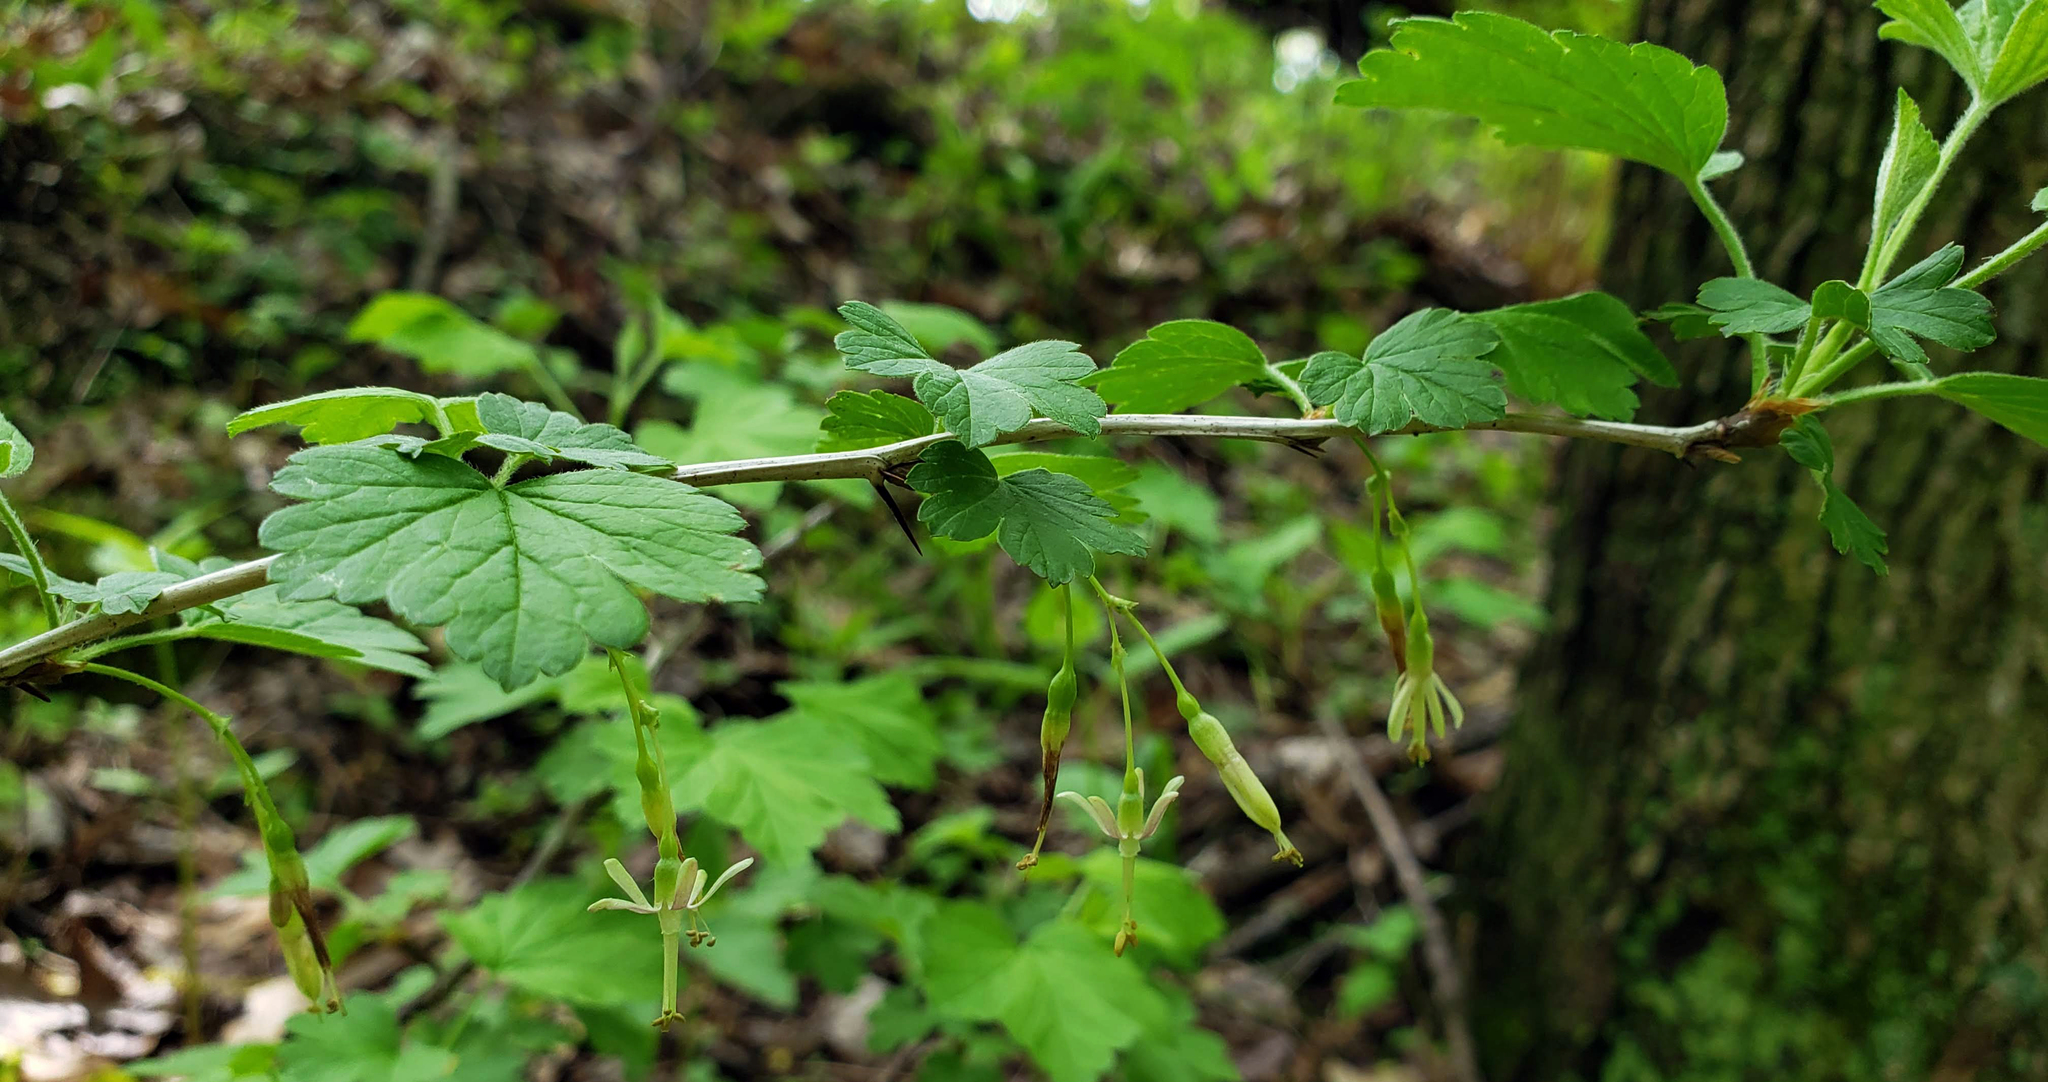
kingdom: Plantae
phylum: Tracheophyta
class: Magnoliopsida
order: Saxifragales
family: Grossulariaceae
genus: Ribes
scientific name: Ribes missouriense
